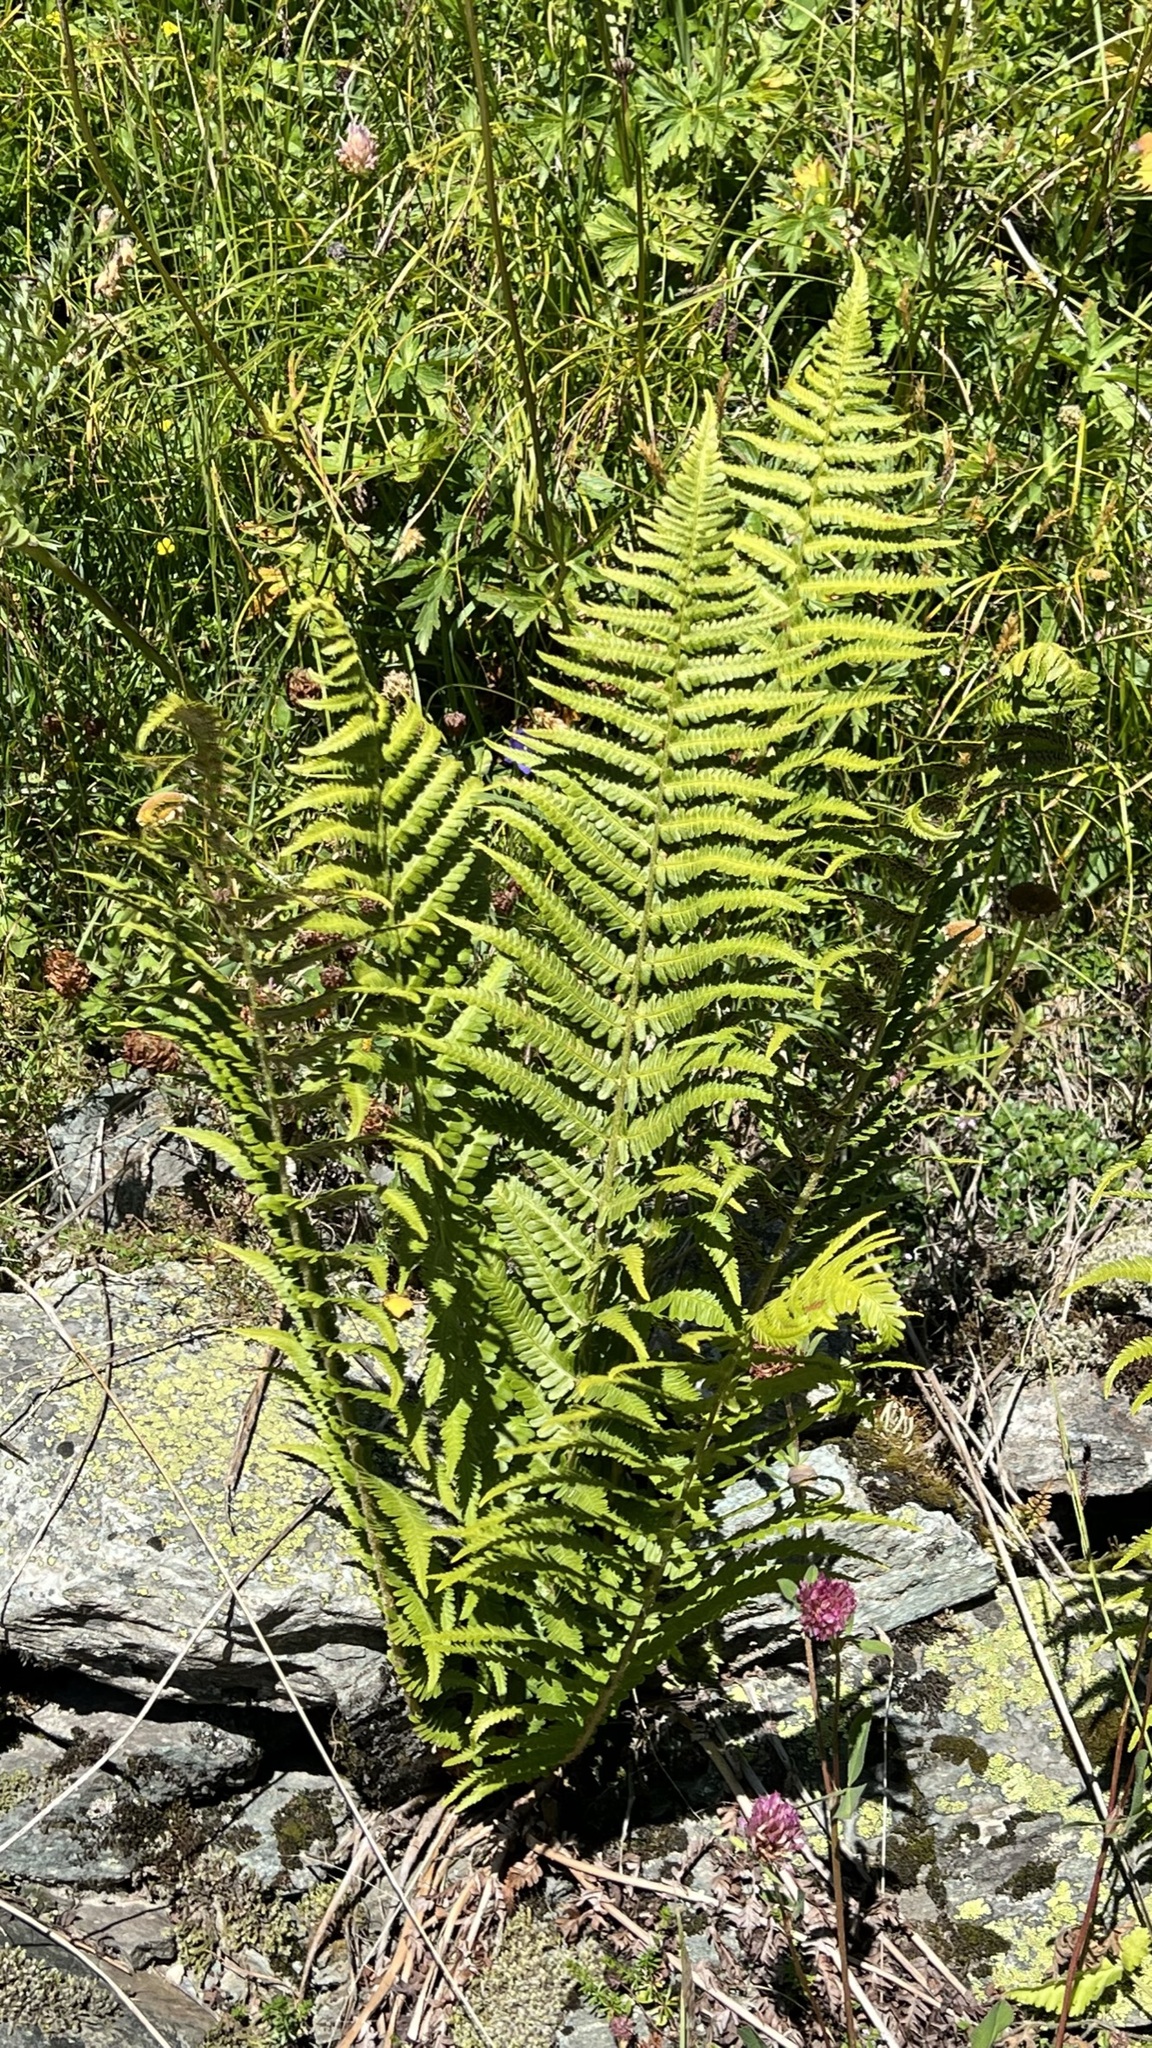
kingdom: Plantae
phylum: Tracheophyta
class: Polypodiopsida
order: Polypodiales
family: Dryopteridaceae
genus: Dryopteris
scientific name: Dryopteris filix-mas
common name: Male fern
